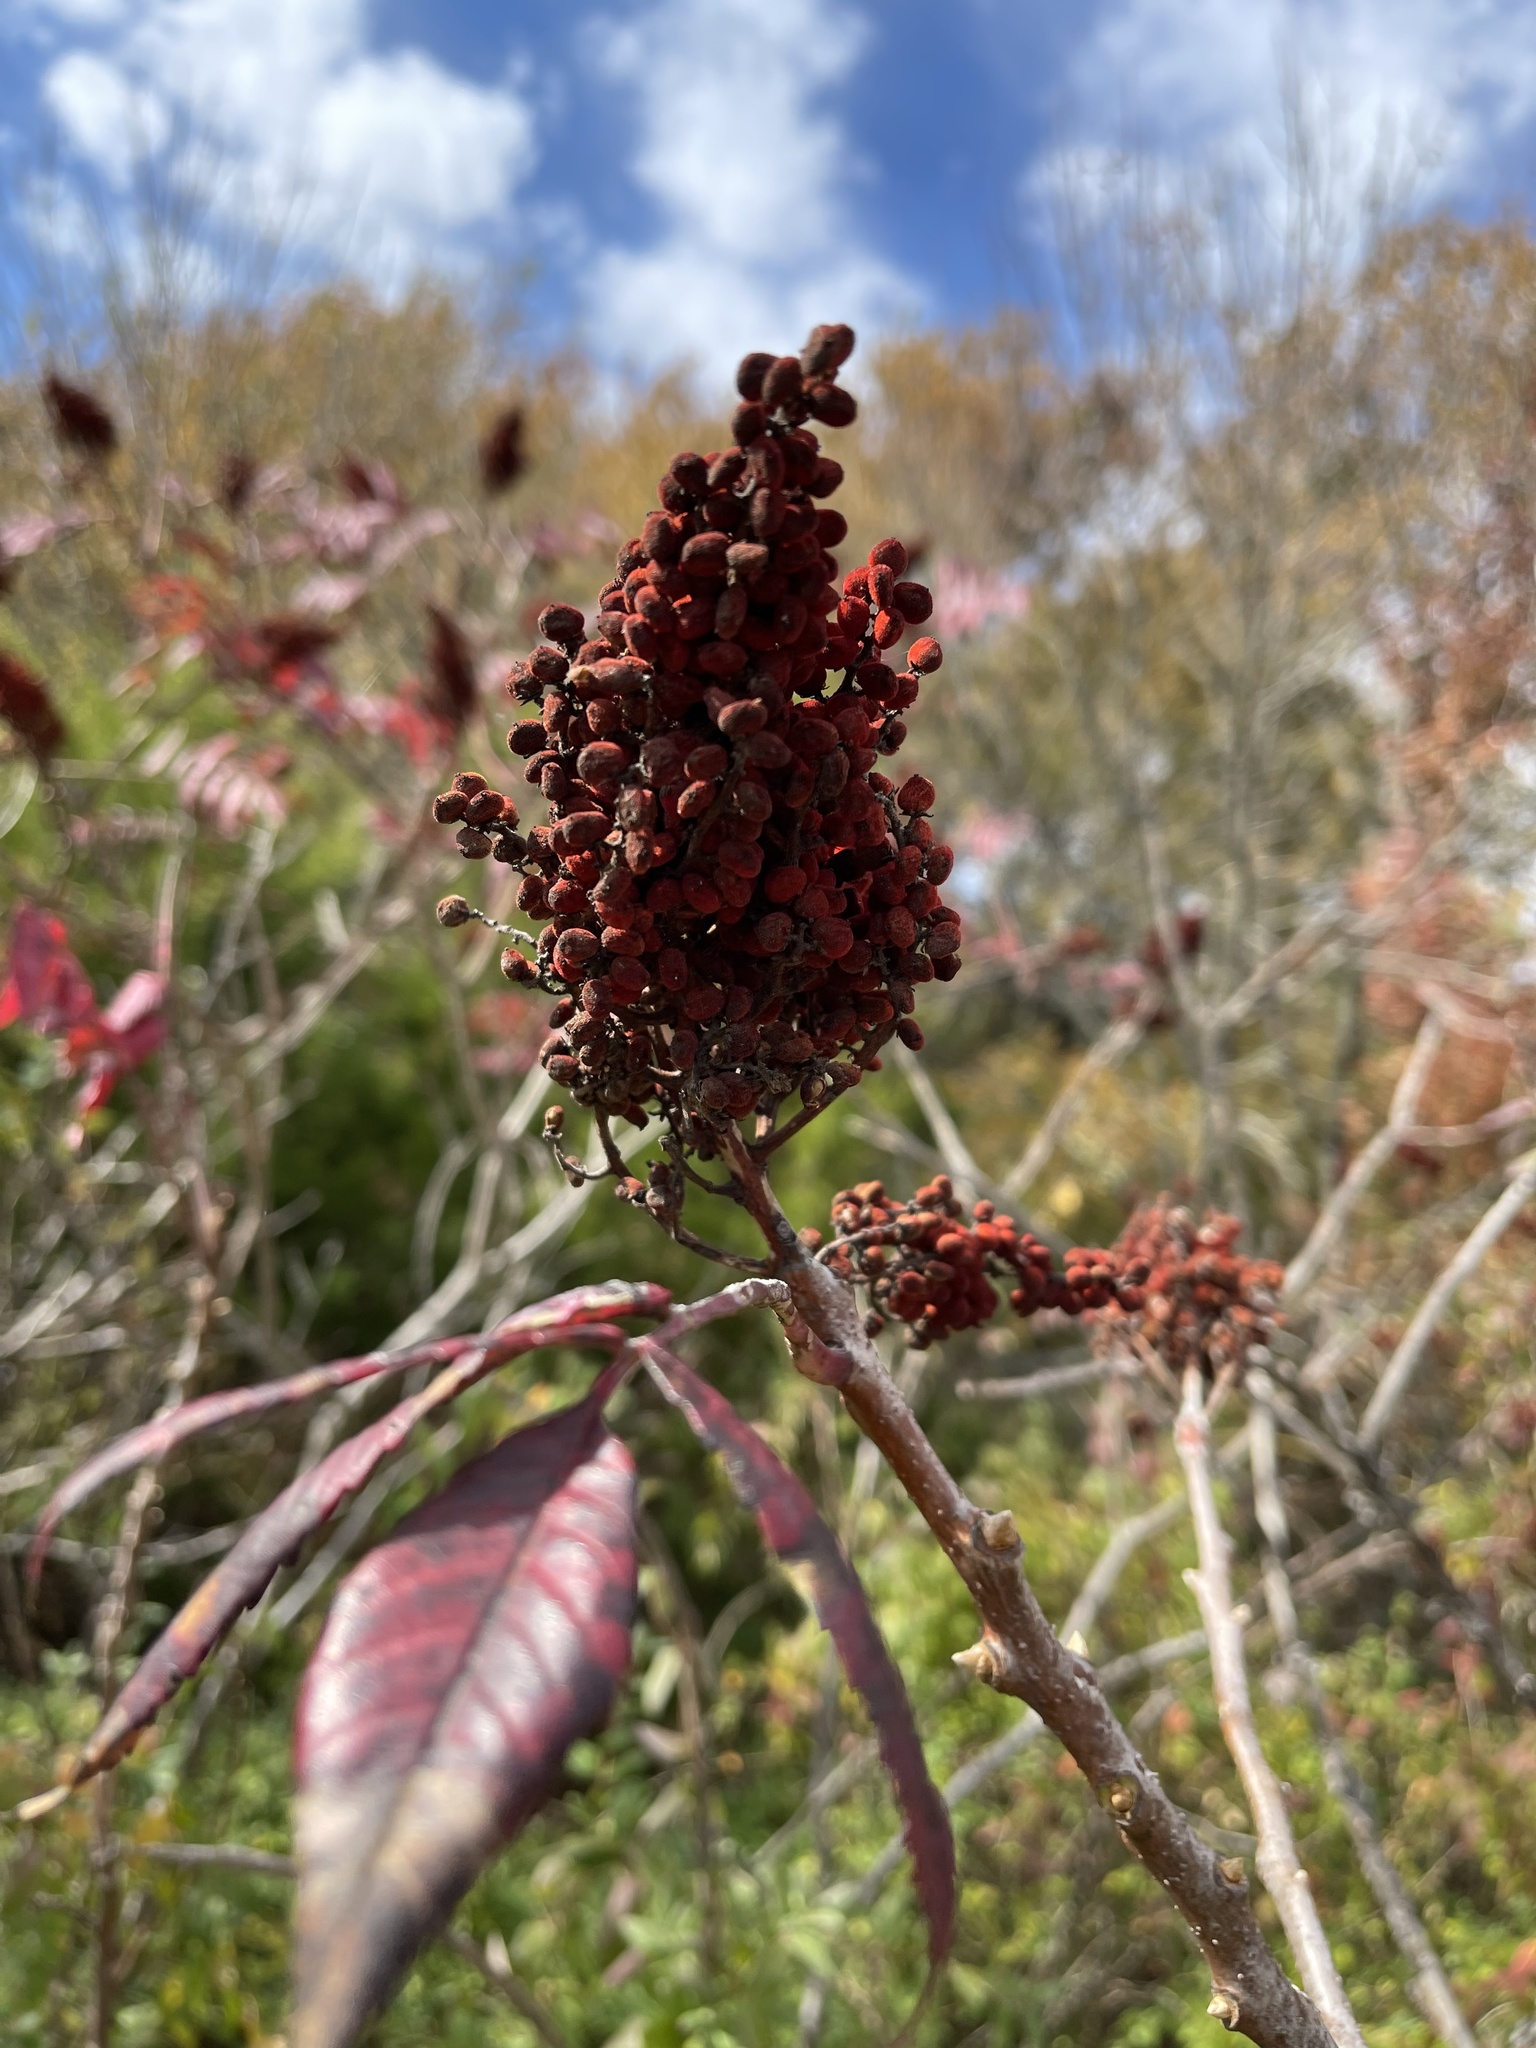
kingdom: Plantae
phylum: Tracheophyta
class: Magnoliopsida
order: Sapindales
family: Anacardiaceae
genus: Rhus
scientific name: Rhus glabra
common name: Scarlet sumac
